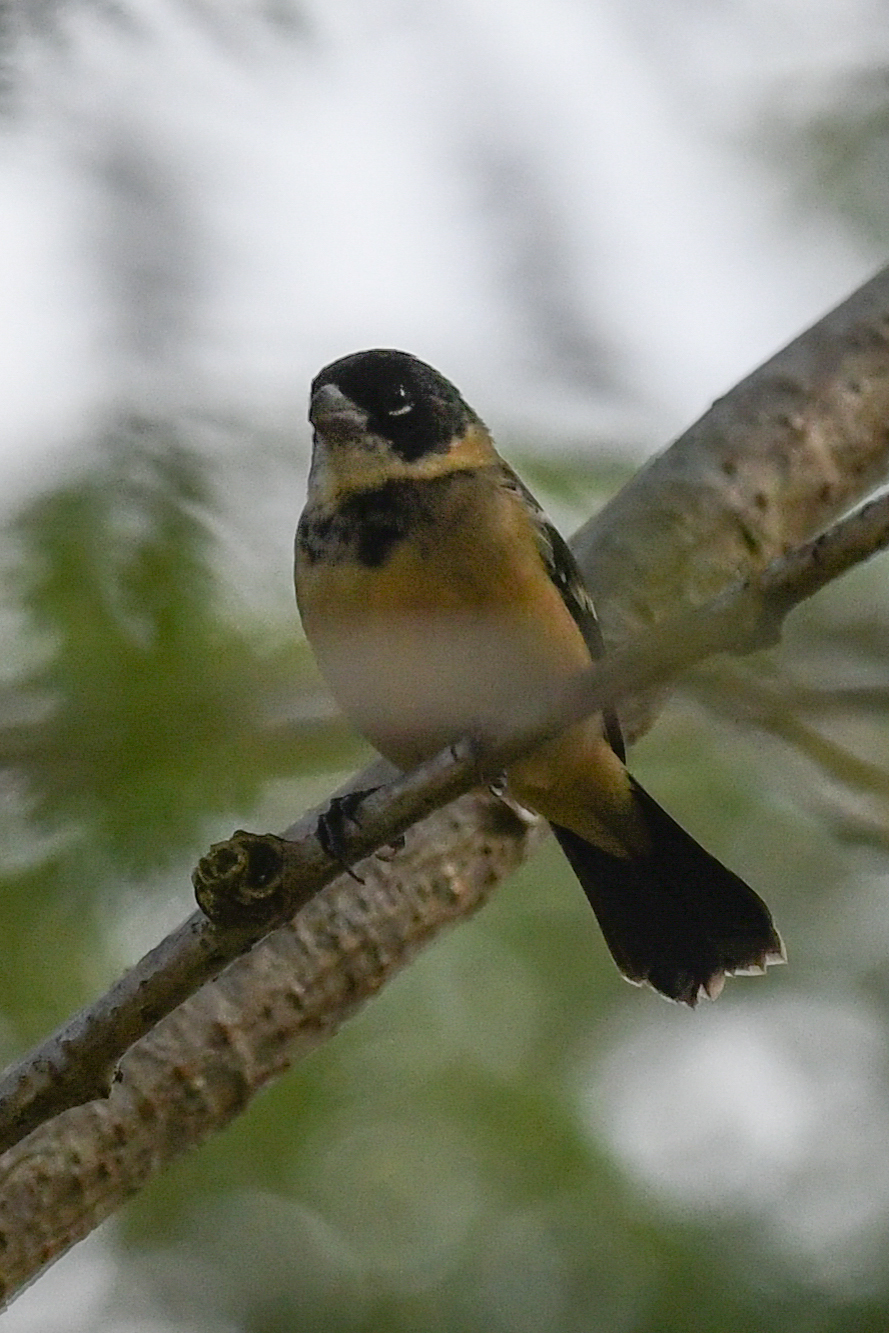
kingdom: Animalia
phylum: Chordata
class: Aves
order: Passeriformes
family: Thraupidae
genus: Sporophila
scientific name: Sporophila morelleti
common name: Morelet's seedeater
